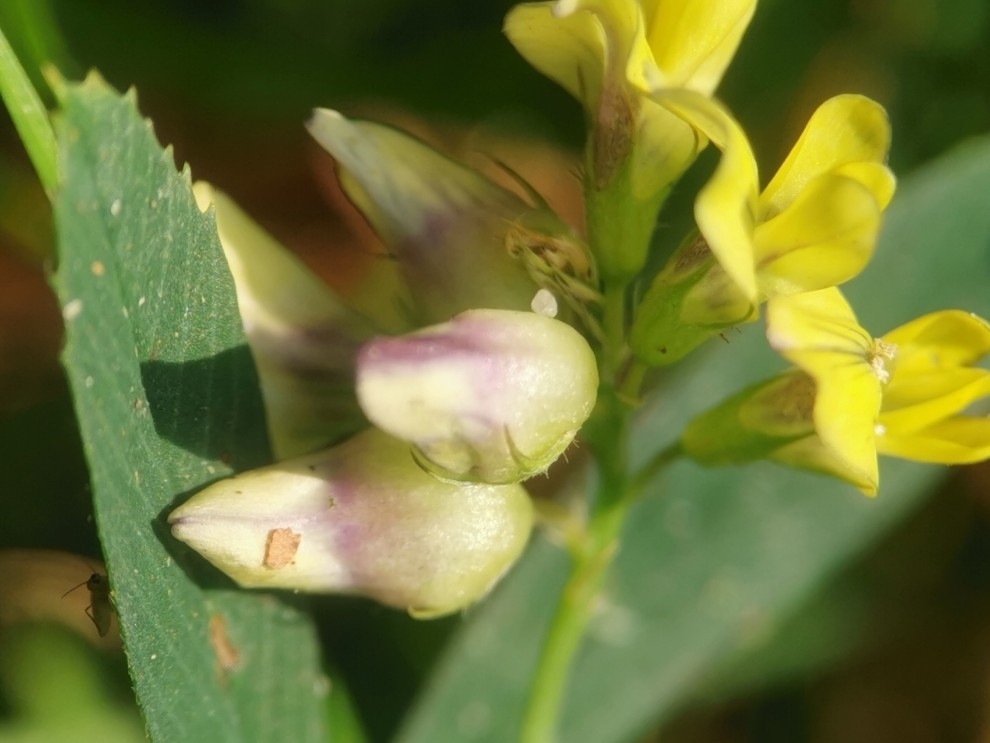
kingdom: Animalia
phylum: Arthropoda
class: Insecta
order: Diptera
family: Cecidomyiidae
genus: Contarinia
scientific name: Contarinia medicaginis
